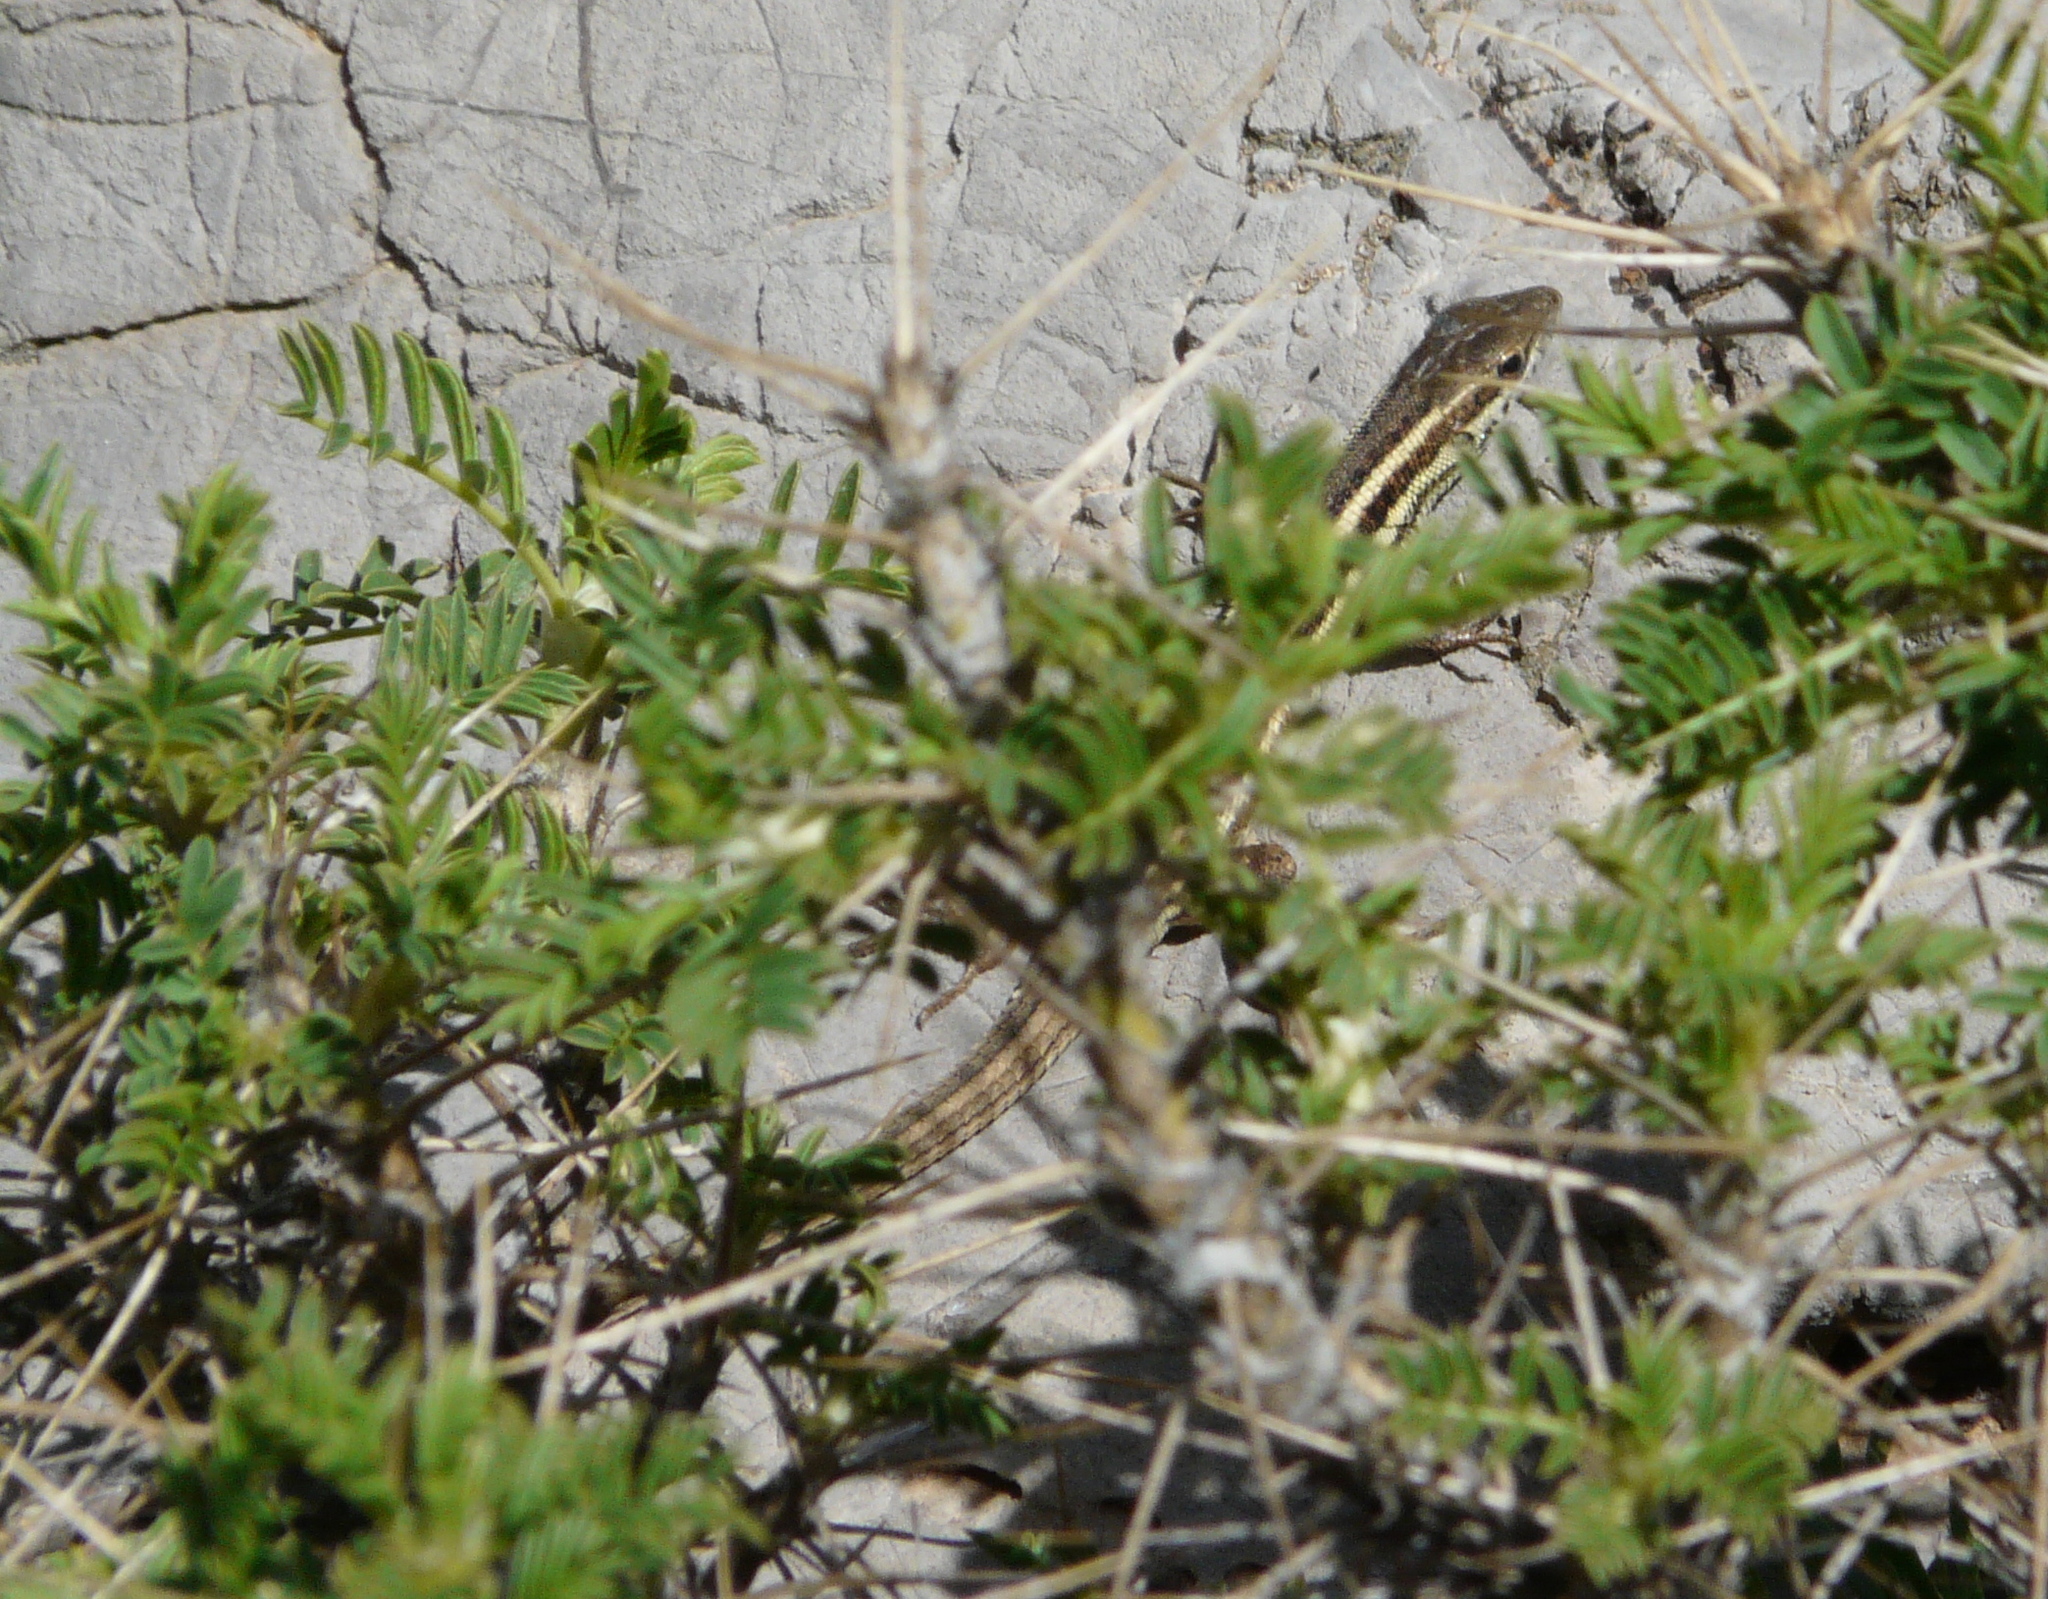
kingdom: Animalia
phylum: Chordata
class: Squamata
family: Lacertidae
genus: Ophisops
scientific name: Ophisops elegans
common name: Snake-eyed lizard
